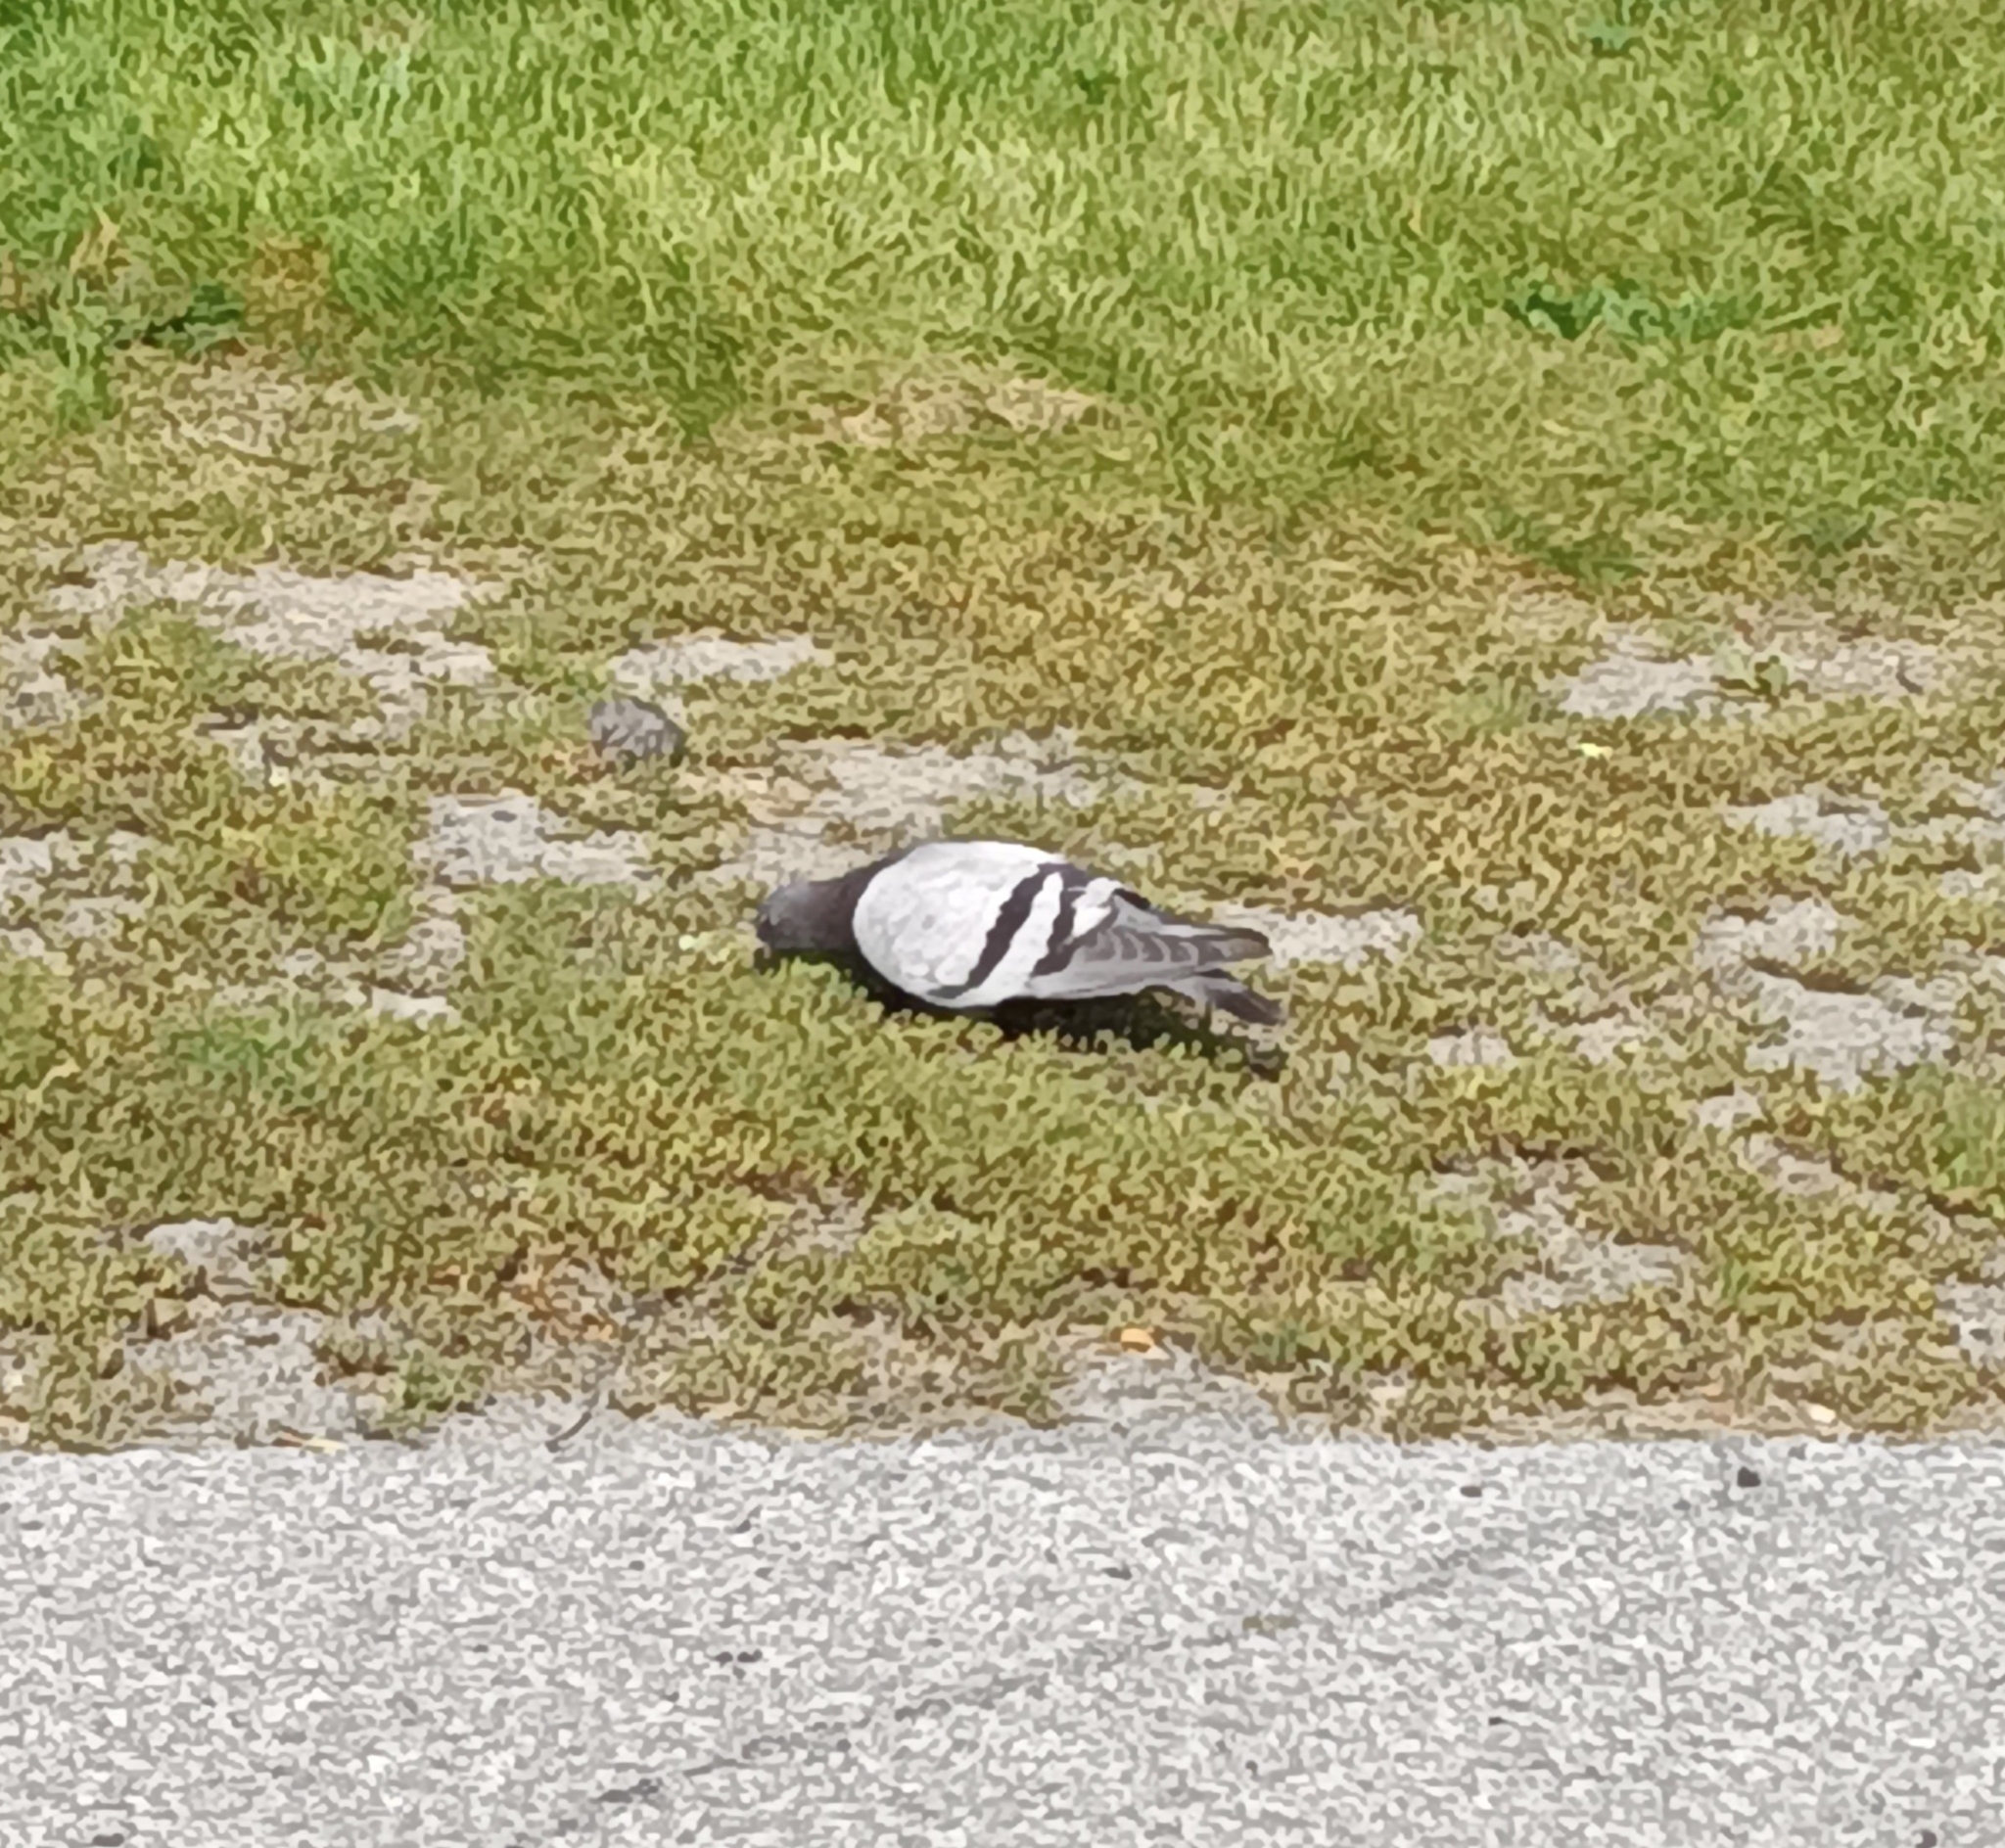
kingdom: Animalia
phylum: Chordata
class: Aves
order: Columbiformes
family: Columbidae
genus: Columba
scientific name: Columba livia
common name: Rock pigeon
